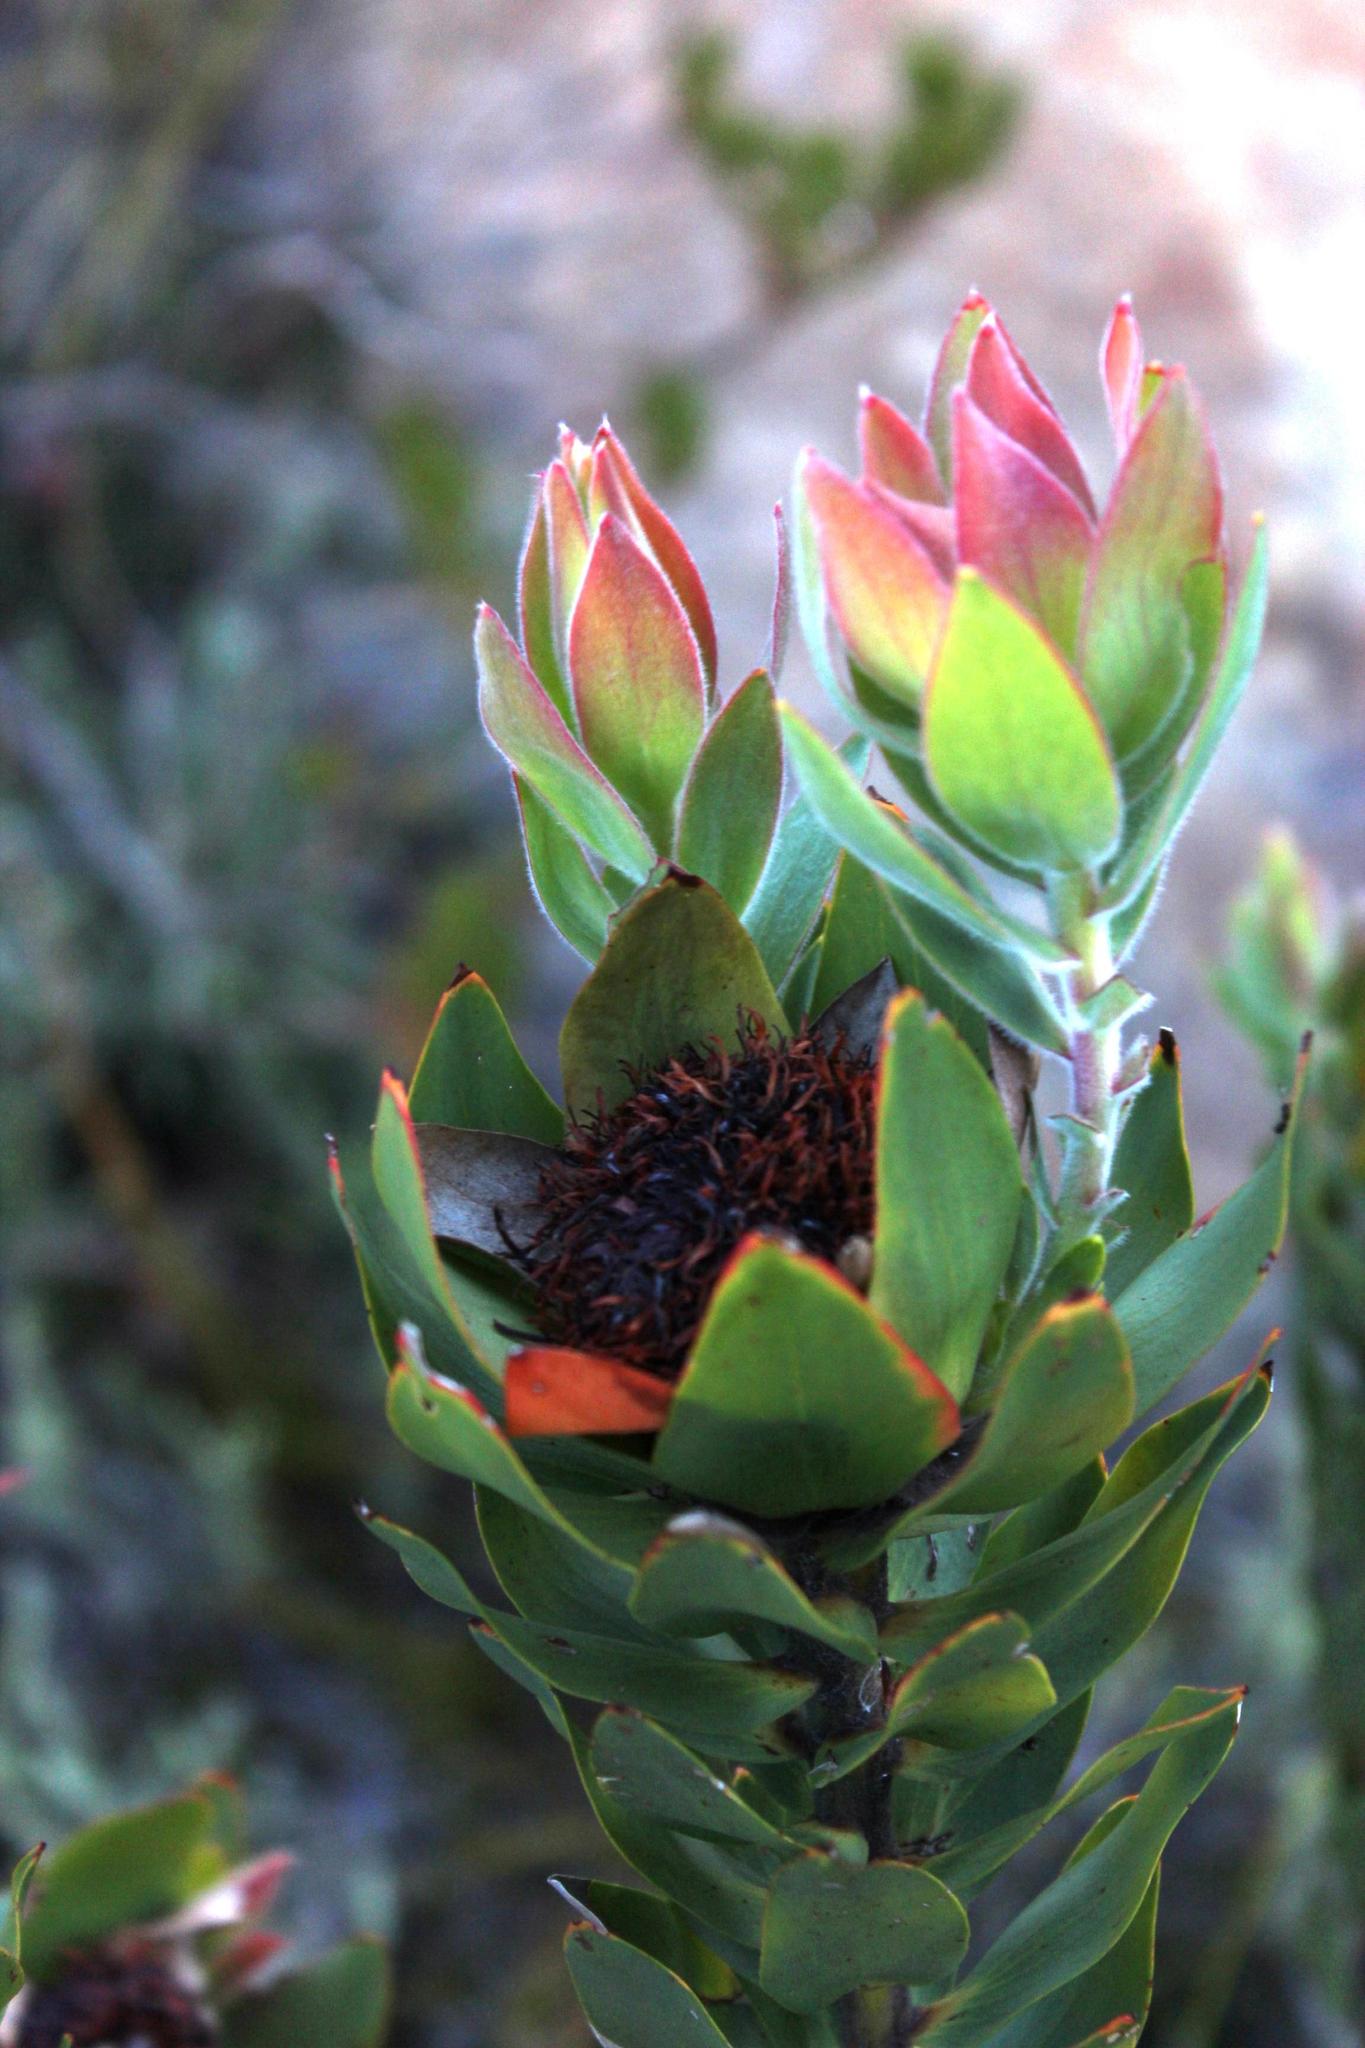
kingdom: Plantae
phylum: Tracheophyta
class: Magnoliopsida
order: Proteales
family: Proteaceae
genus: Leucadendron
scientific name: Leucadendron daphnoides
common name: Du toit's kloof conebush
